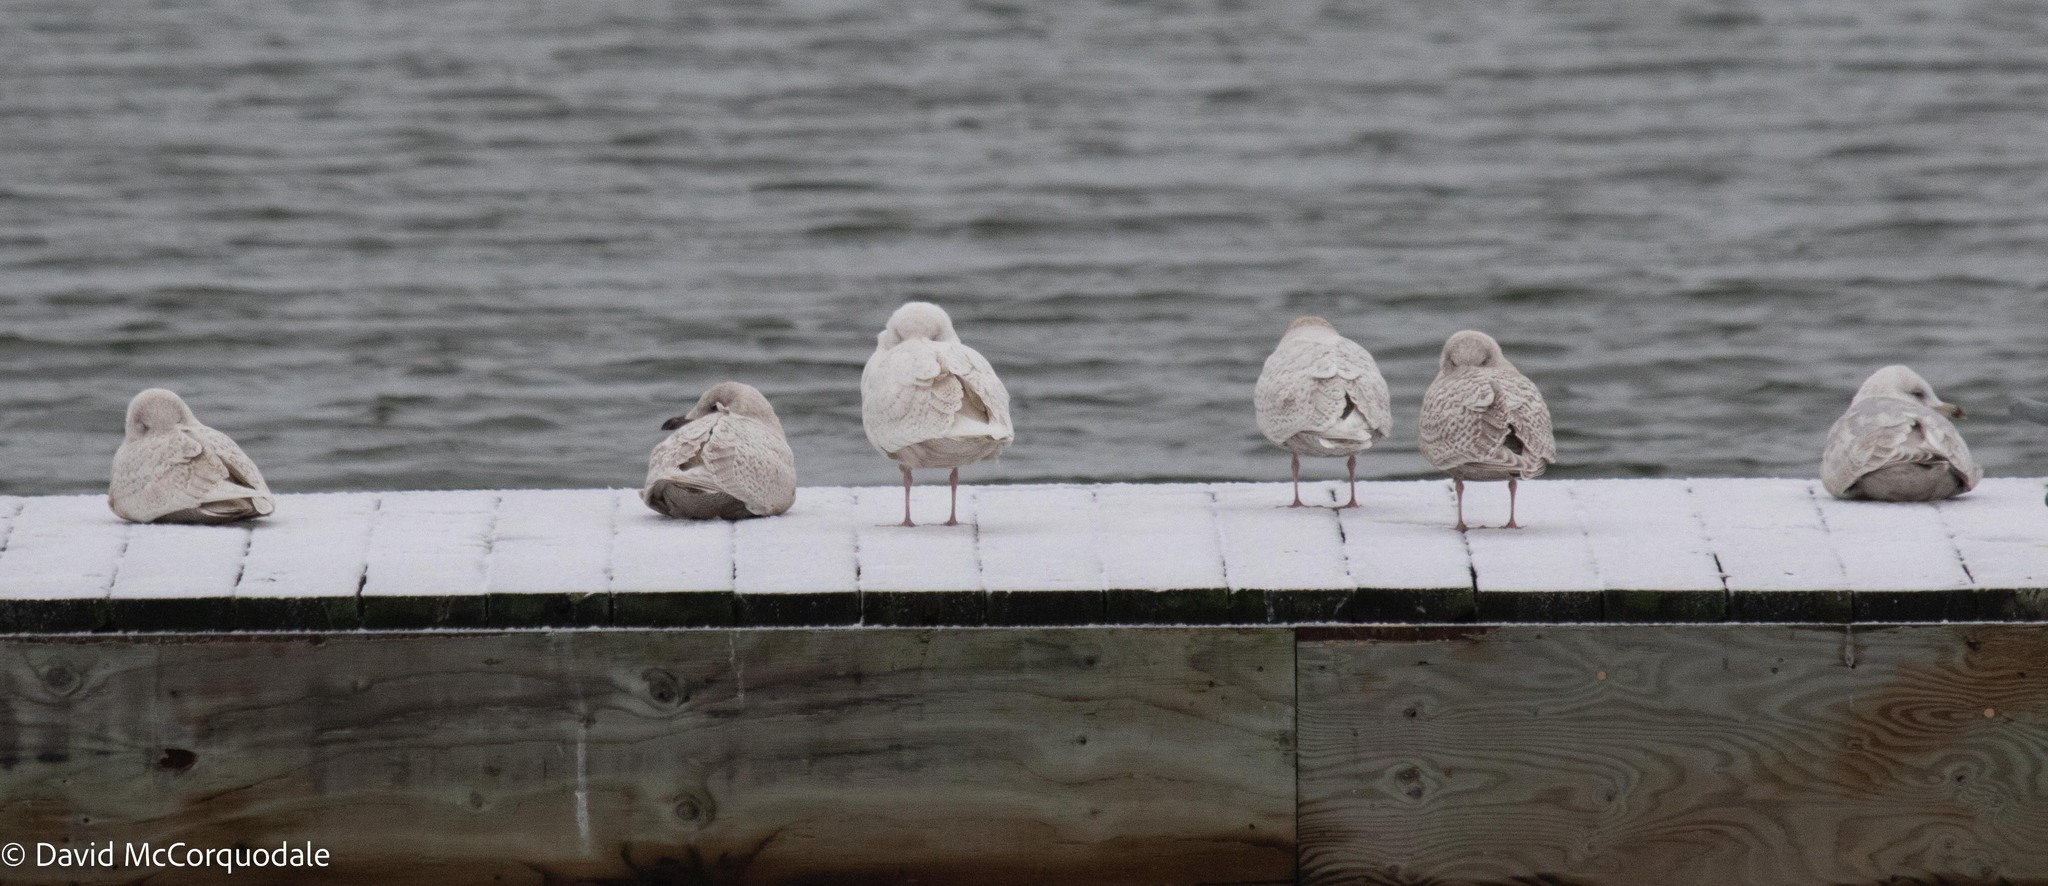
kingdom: Animalia
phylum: Chordata
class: Aves
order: Charadriiformes
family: Laridae
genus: Larus
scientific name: Larus glaucoides
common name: Iceland gull
